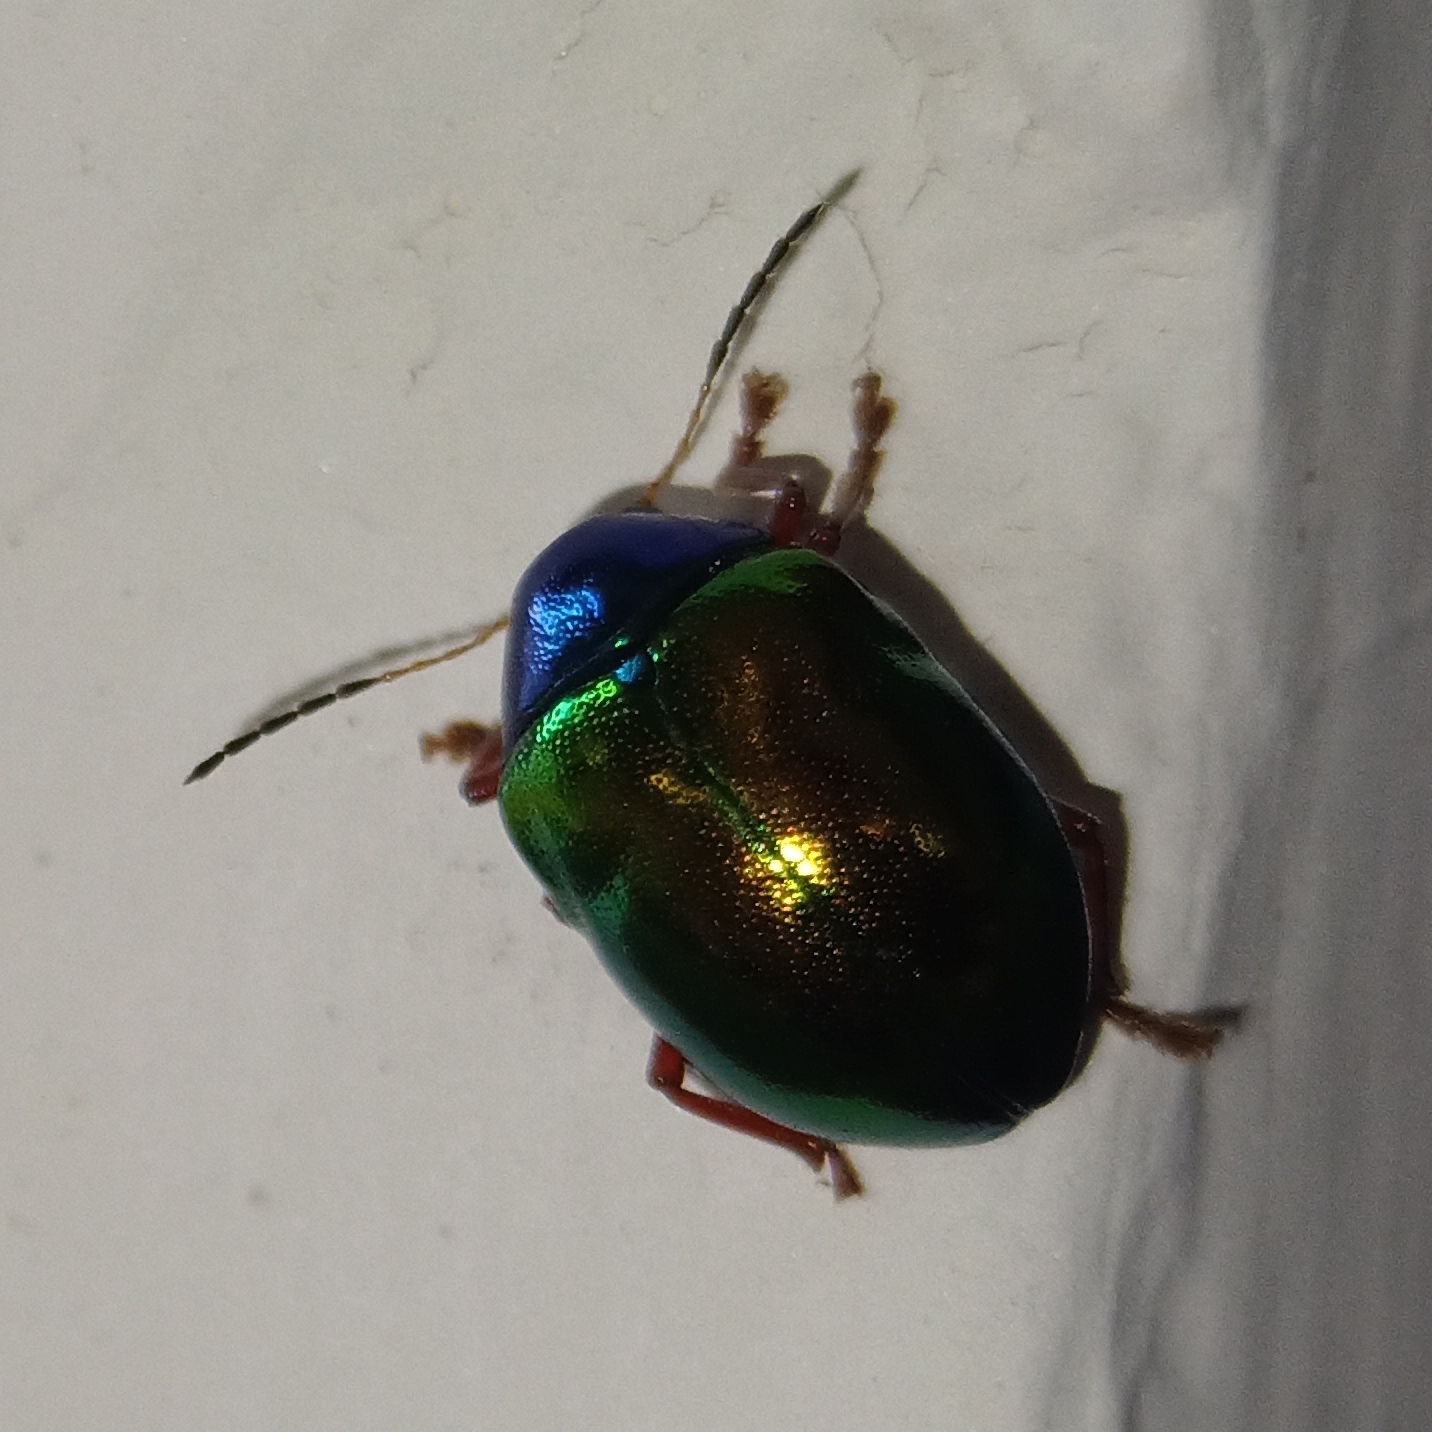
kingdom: Animalia
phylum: Arthropoda
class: Insecta
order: Coleoptera
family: Chrysomelidae
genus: Iphimeis
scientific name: Iphimeis
